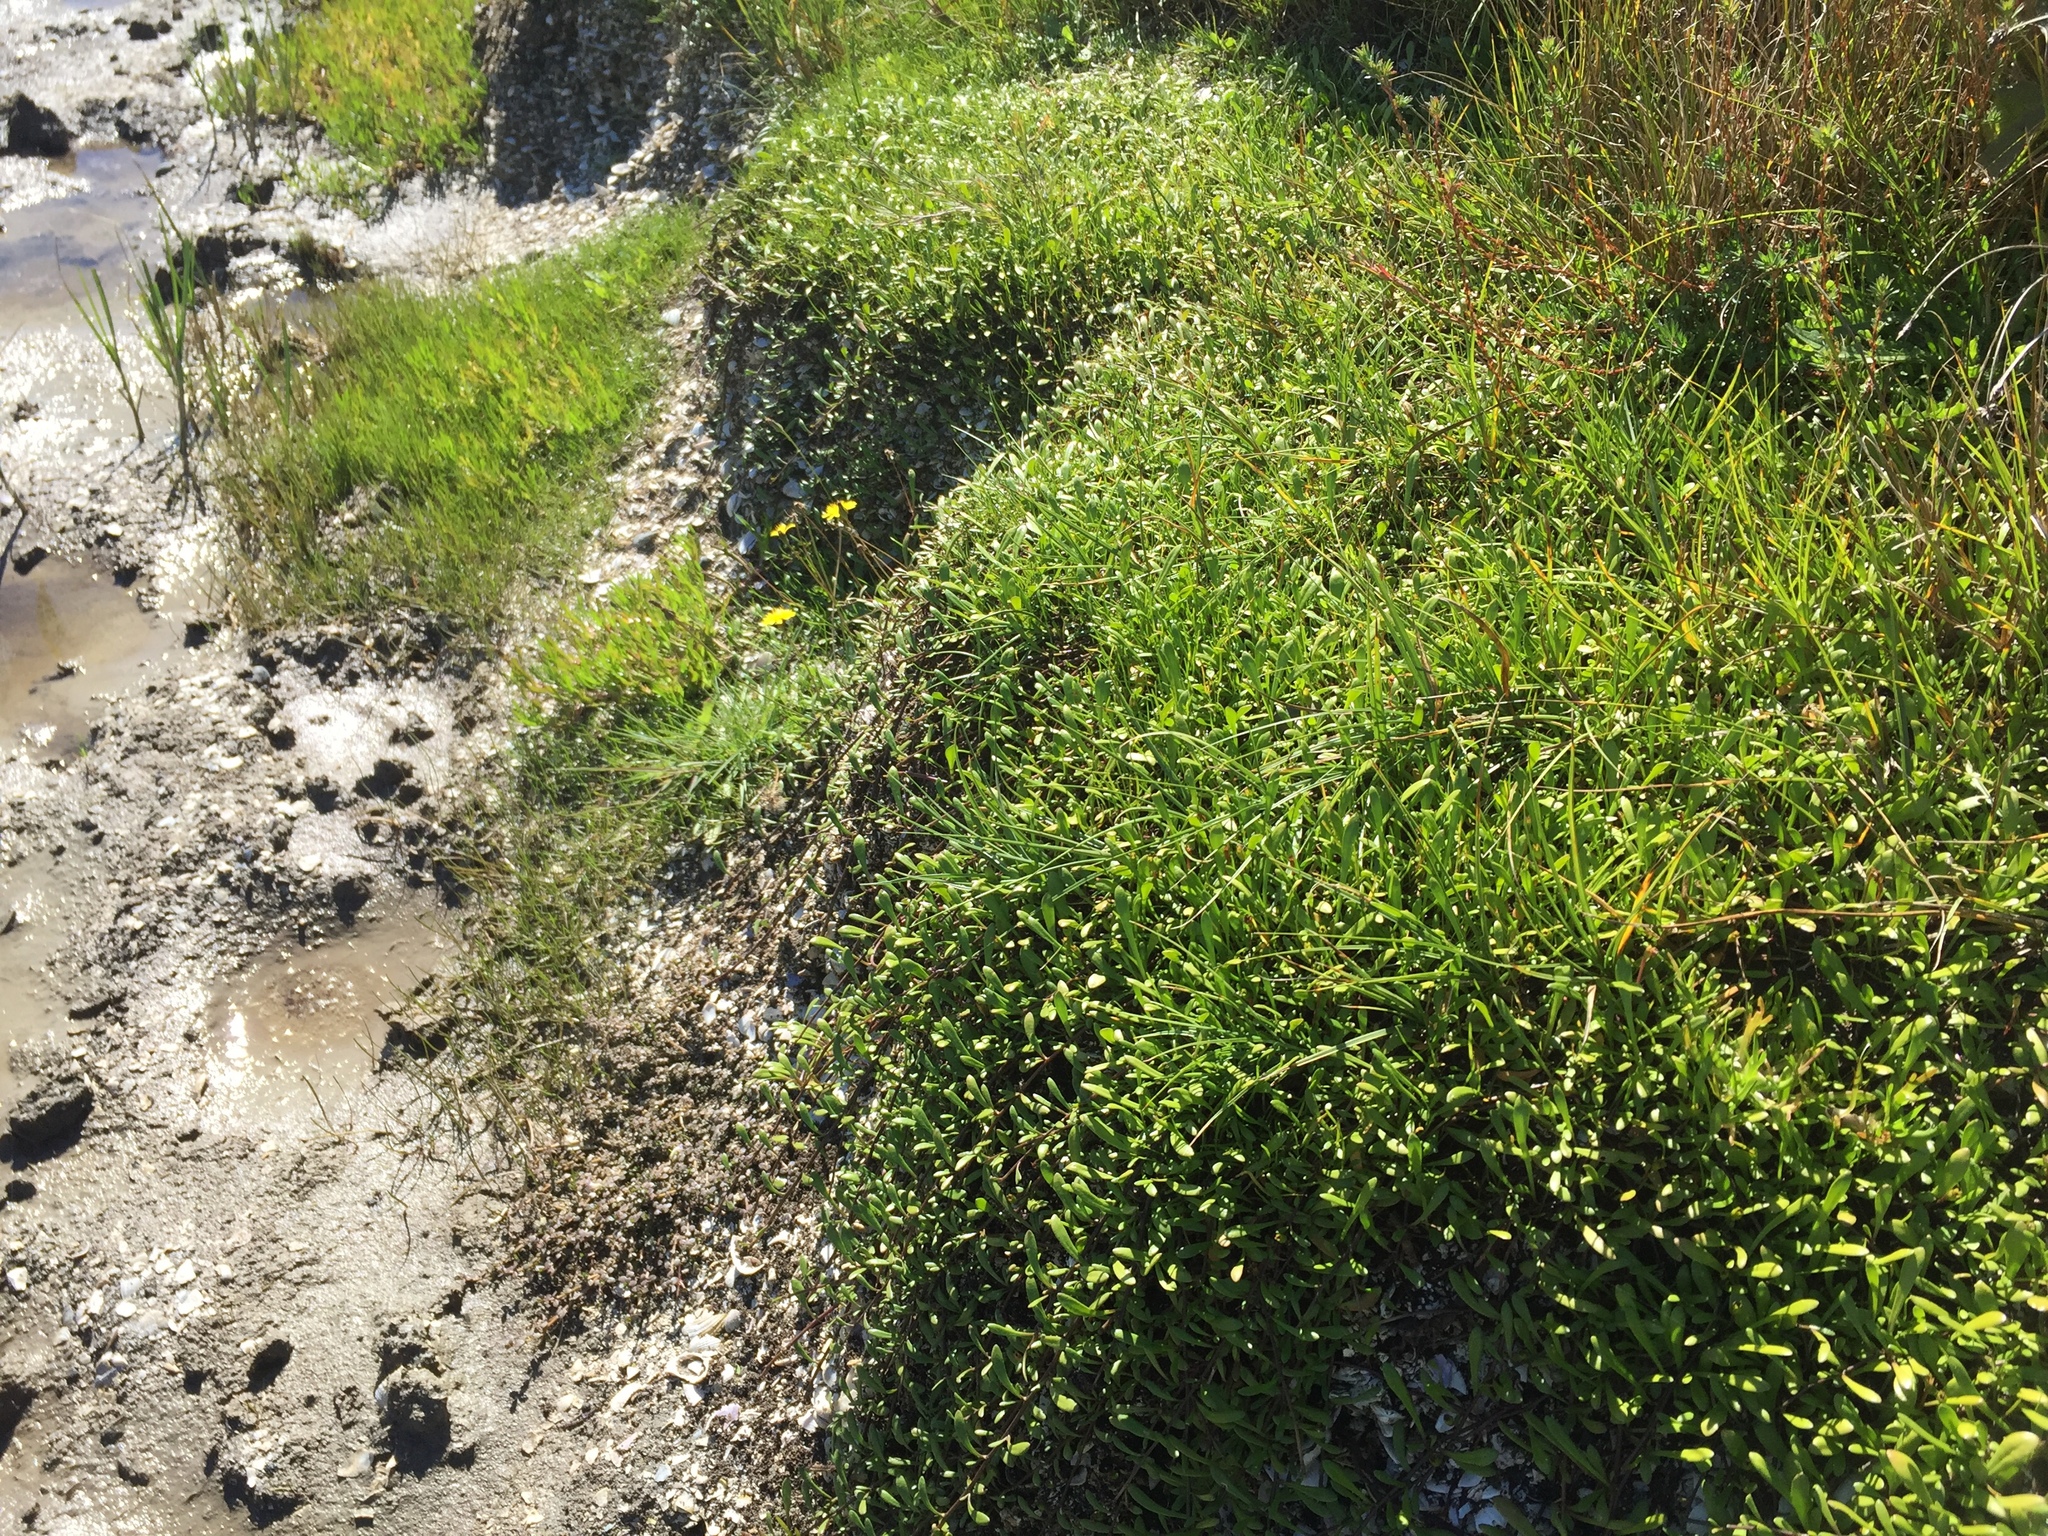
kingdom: Plantae
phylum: Tracheophyta
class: Magnoliopsida
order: Asterales
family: Goodeniaceae
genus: Goodenia
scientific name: Goodenia radicans
